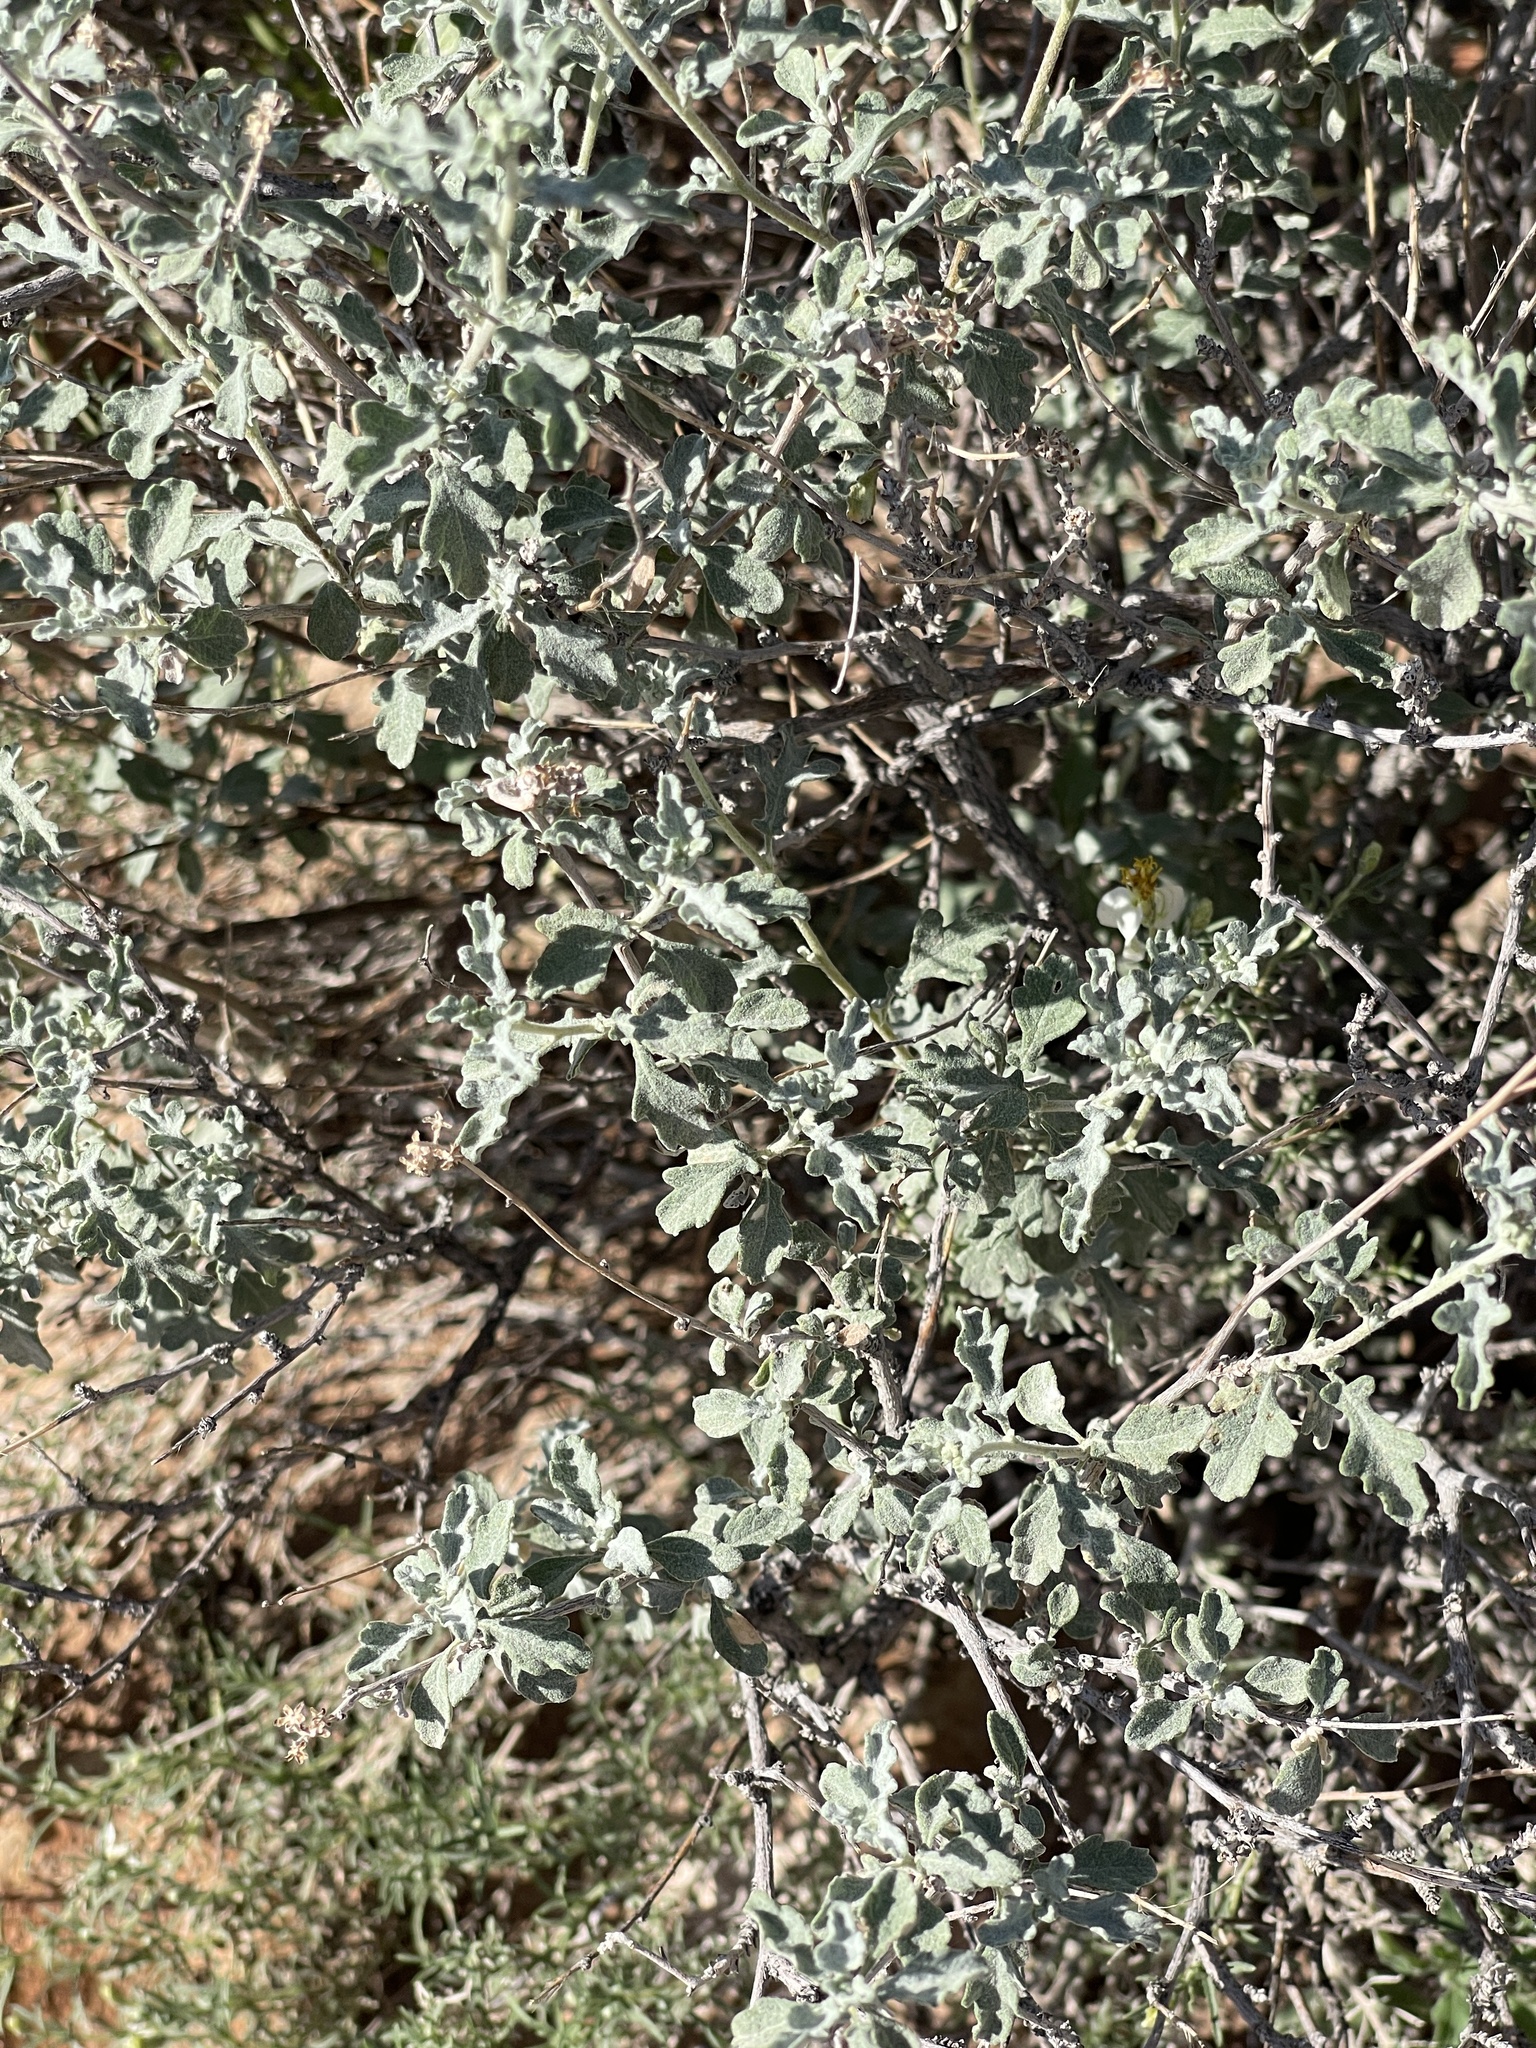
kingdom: Plantae
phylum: Tracheophyta
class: Magnoliopsida
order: Asterales
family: Asteraceae
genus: Parthenium
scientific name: Parthenium incanum
